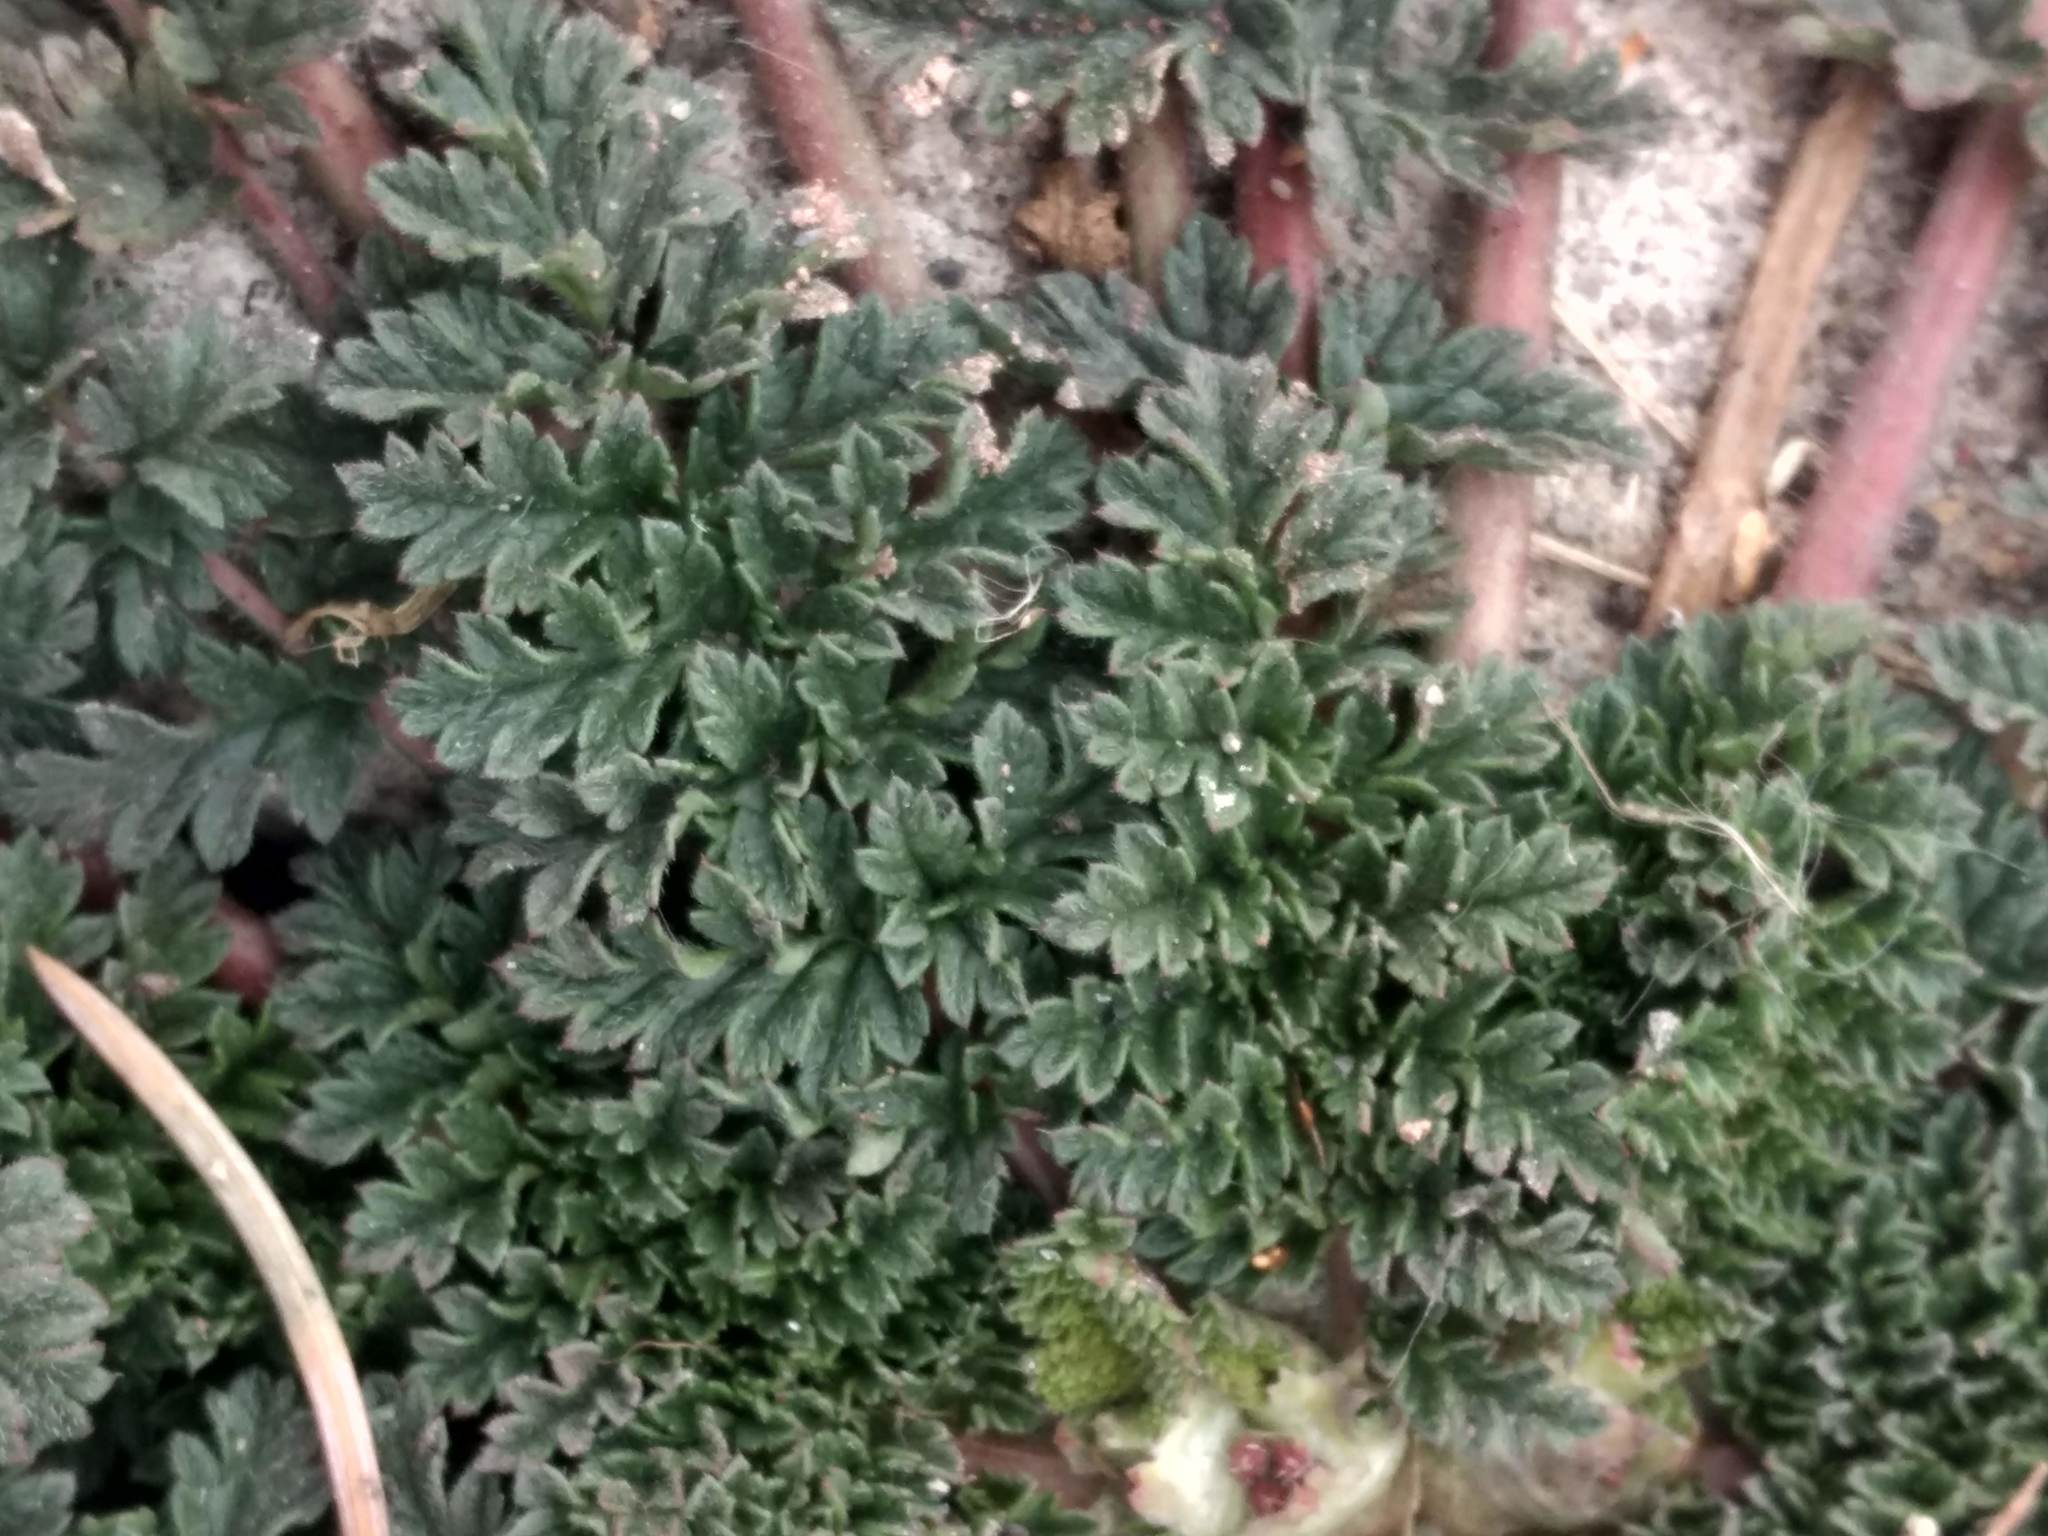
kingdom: Plantae
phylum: Tracheophyta
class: Magnoliopsida
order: Geraniales
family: Geraniaceae
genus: Erodium
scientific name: Erodium cicutarium
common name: Common stork's-bill
